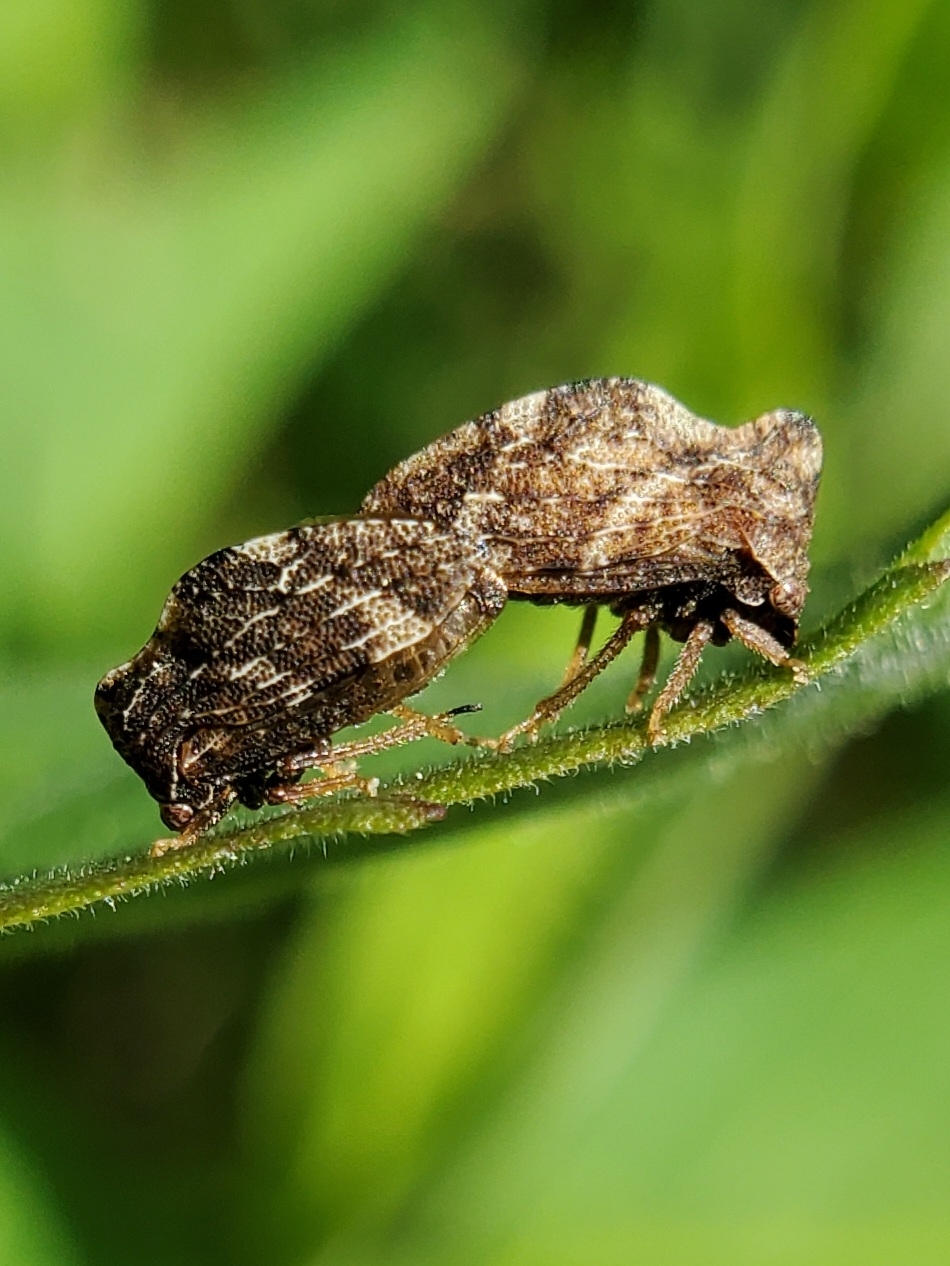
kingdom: Animalia
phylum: Arthropoda
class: Insecta
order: Hemiptera
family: Membracidae
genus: Publilia
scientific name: Publilia concava
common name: Aster treehopper
